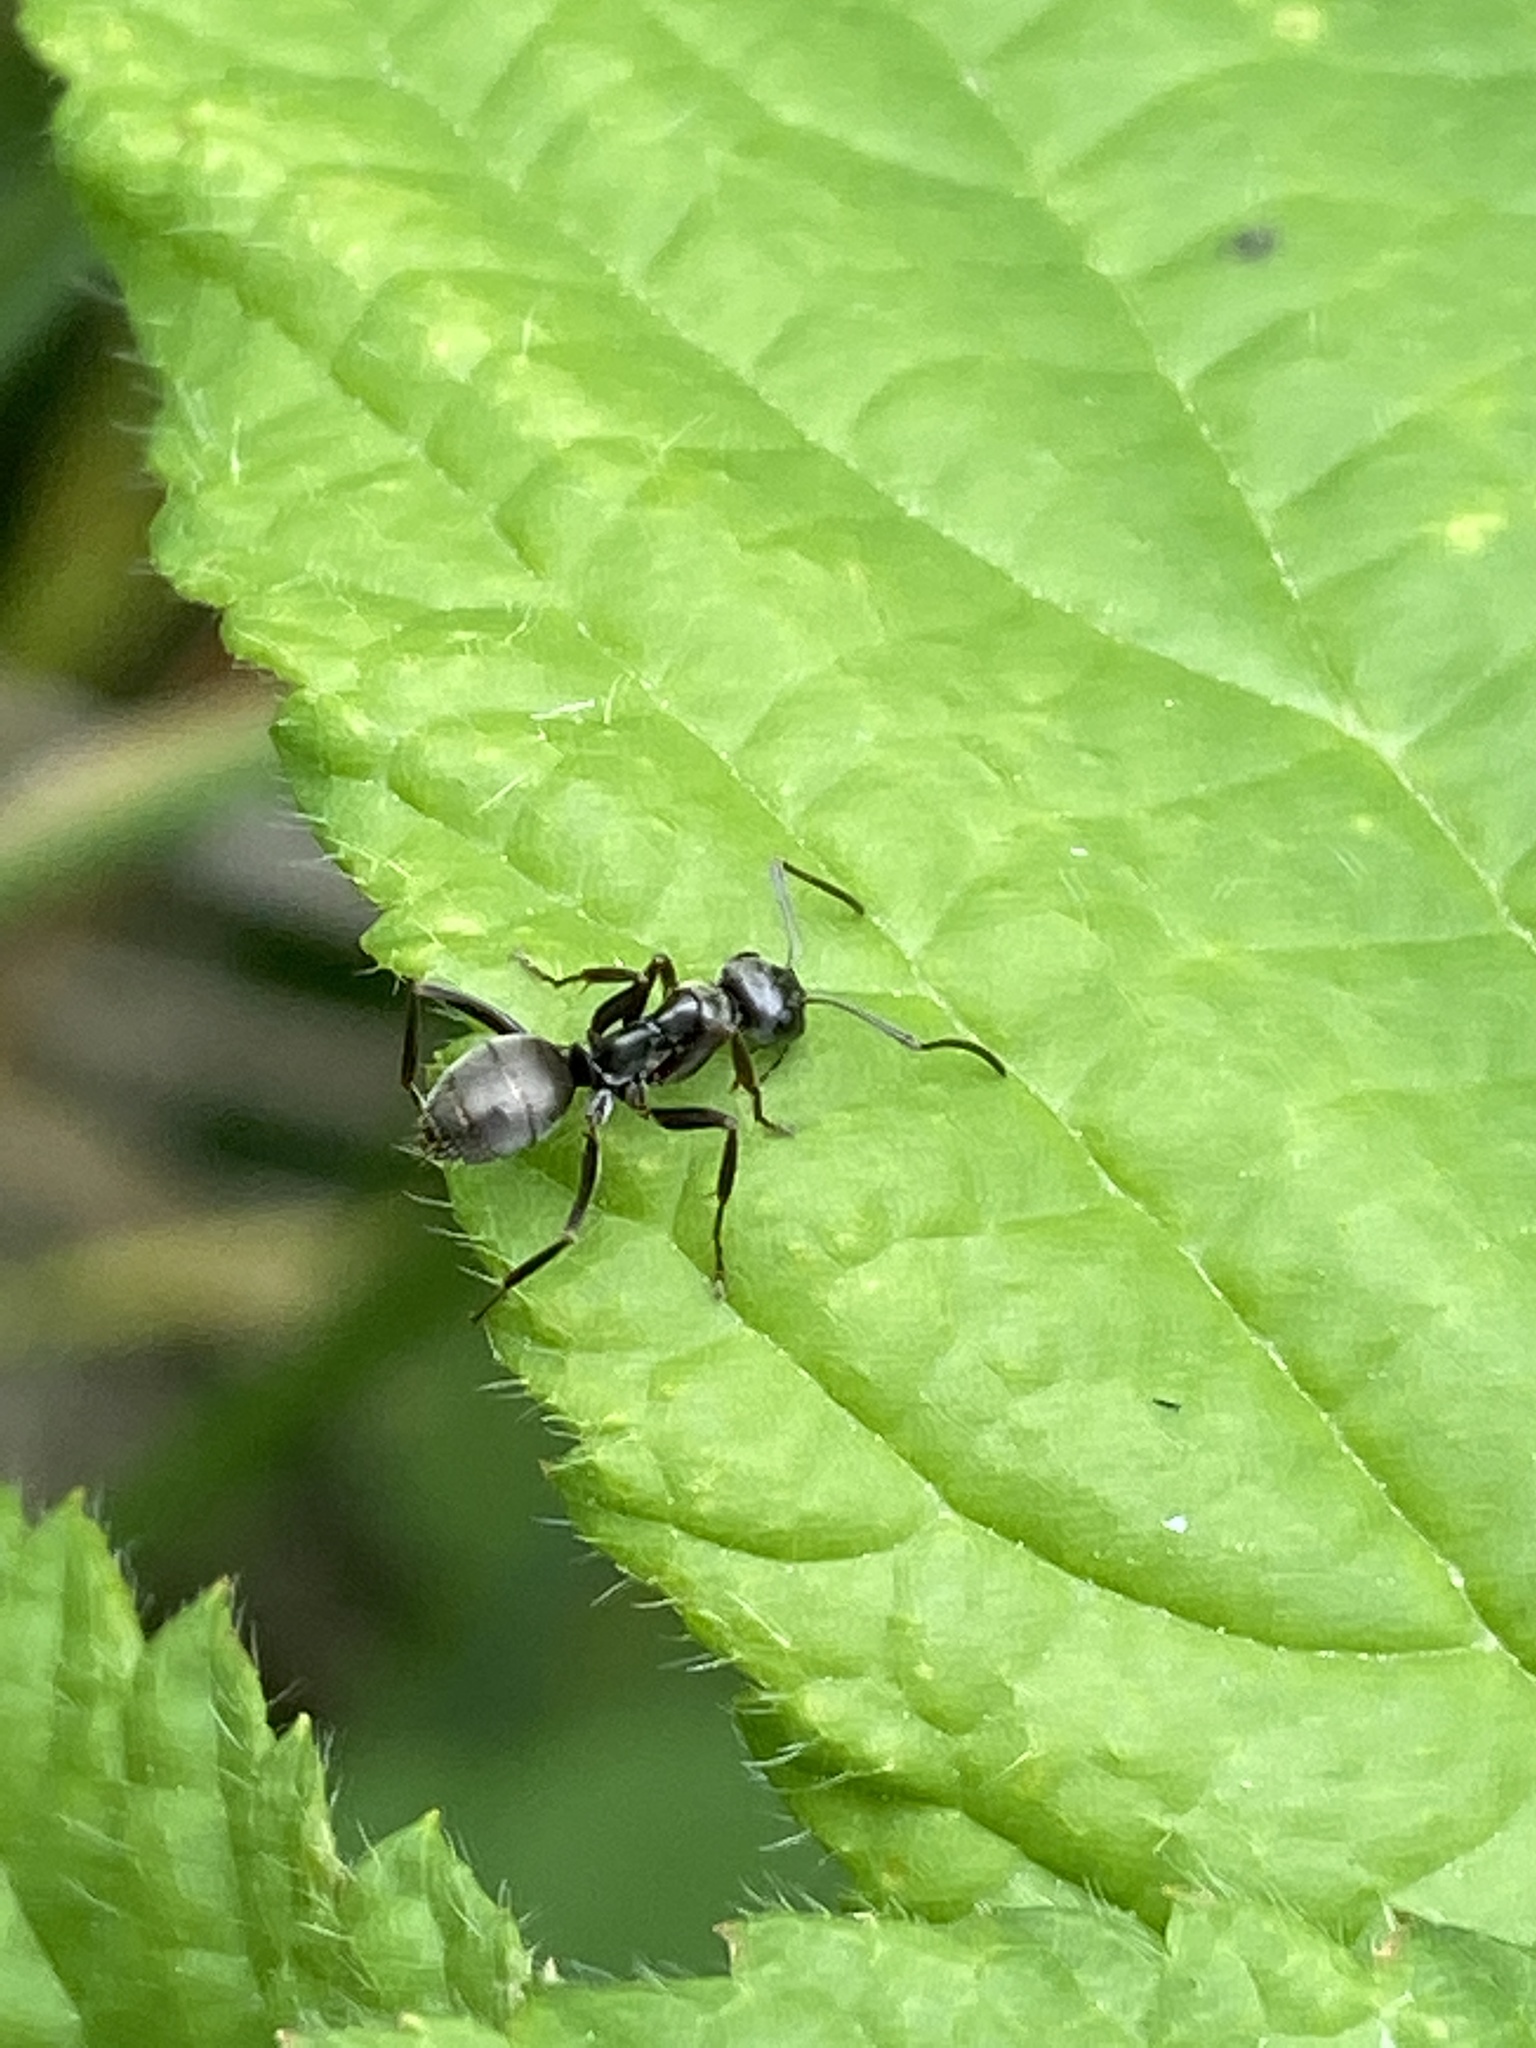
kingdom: Animalia
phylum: Arthropoda
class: Insecta
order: Hymenoptera
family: Formicidae
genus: Formica
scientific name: Formica fusca
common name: Silky ant
